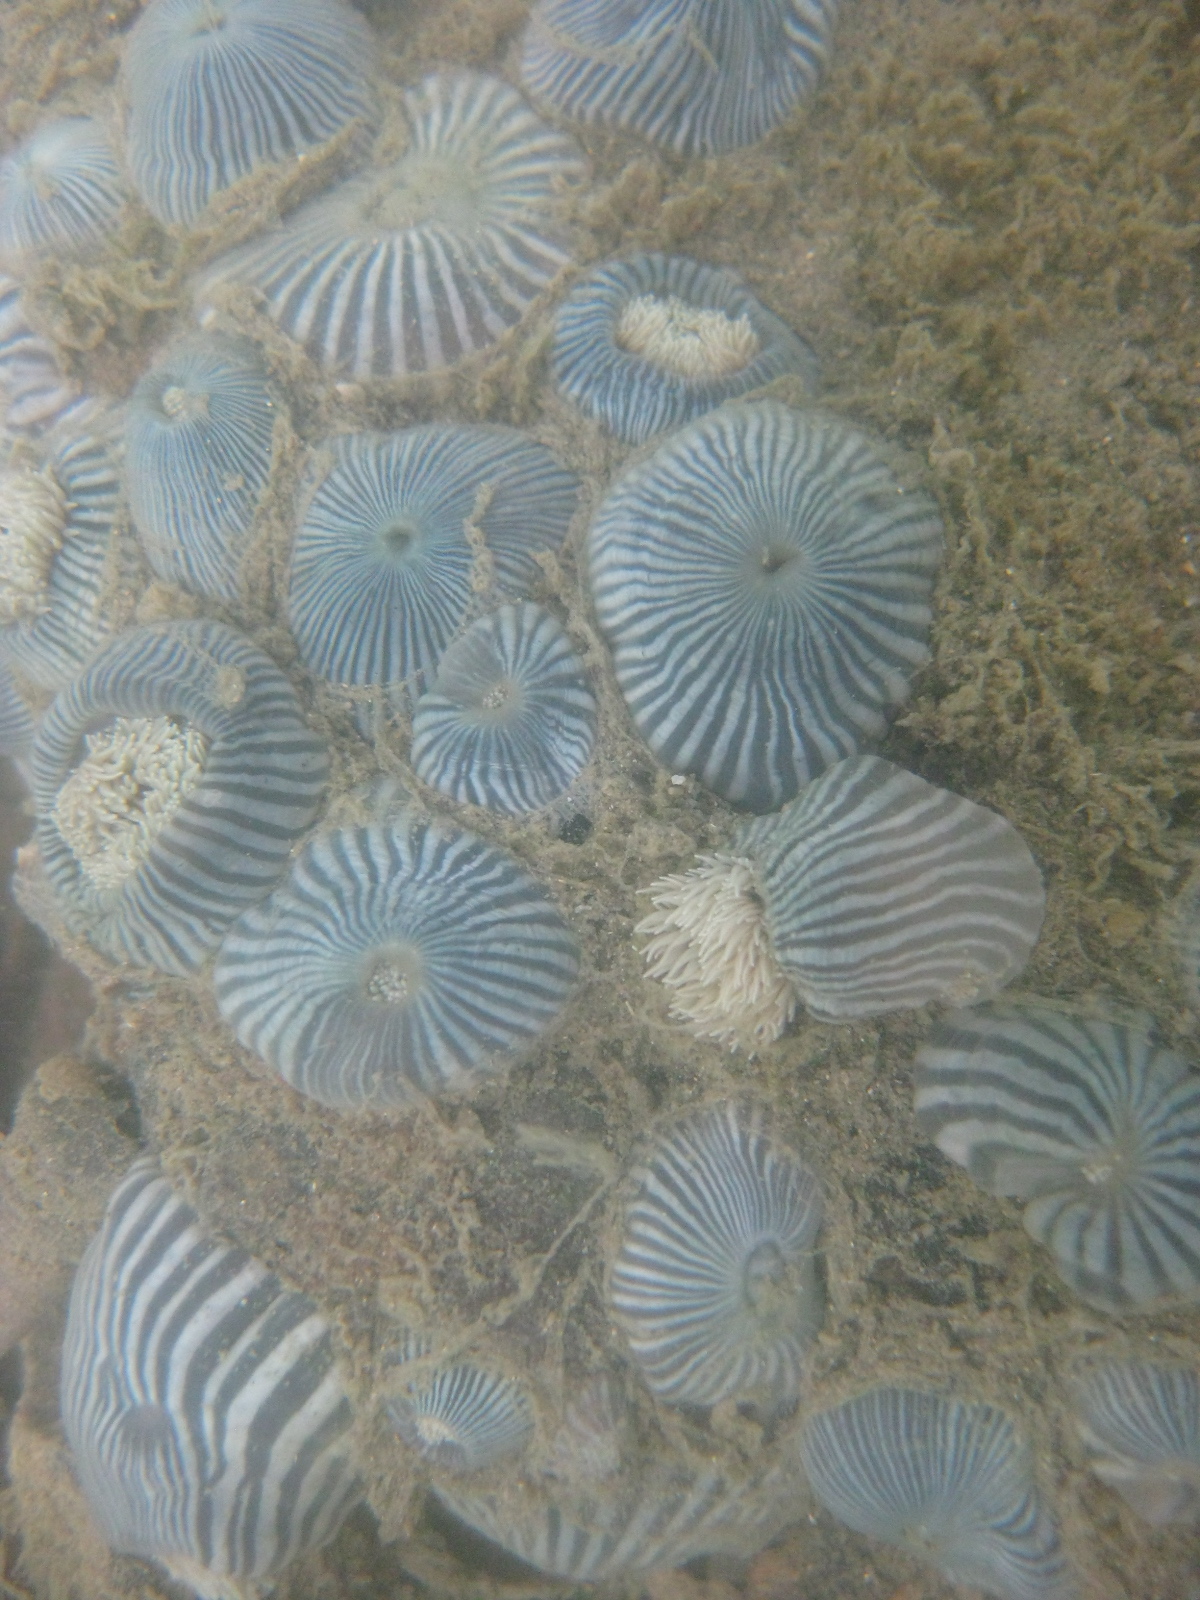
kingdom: Animalia
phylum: Cnidaria
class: Anthozoa
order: Actiniaria
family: Diadumenidae
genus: Diadumene
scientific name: Diadumene neozelanica
